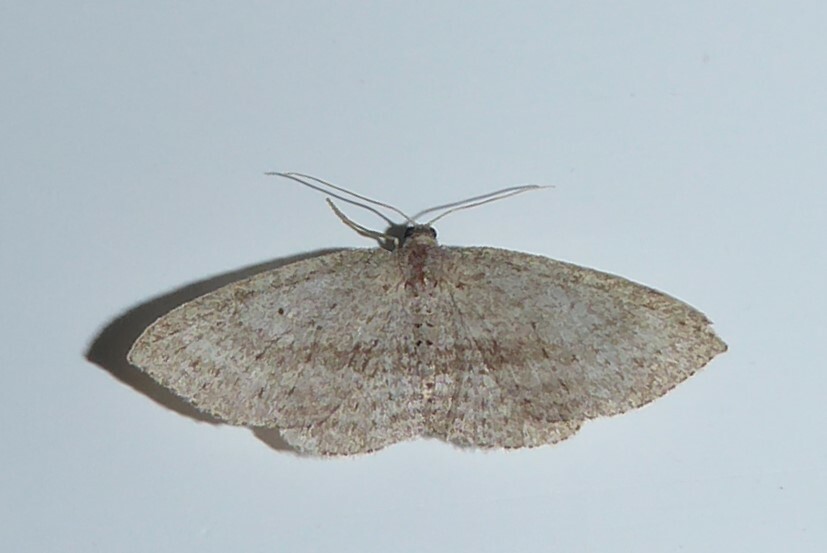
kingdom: Animalia
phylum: Arthropoda
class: Insecta
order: Lepidoptera
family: Geometridae
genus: Poecilasthena
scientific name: Poecilasthena schistaria
